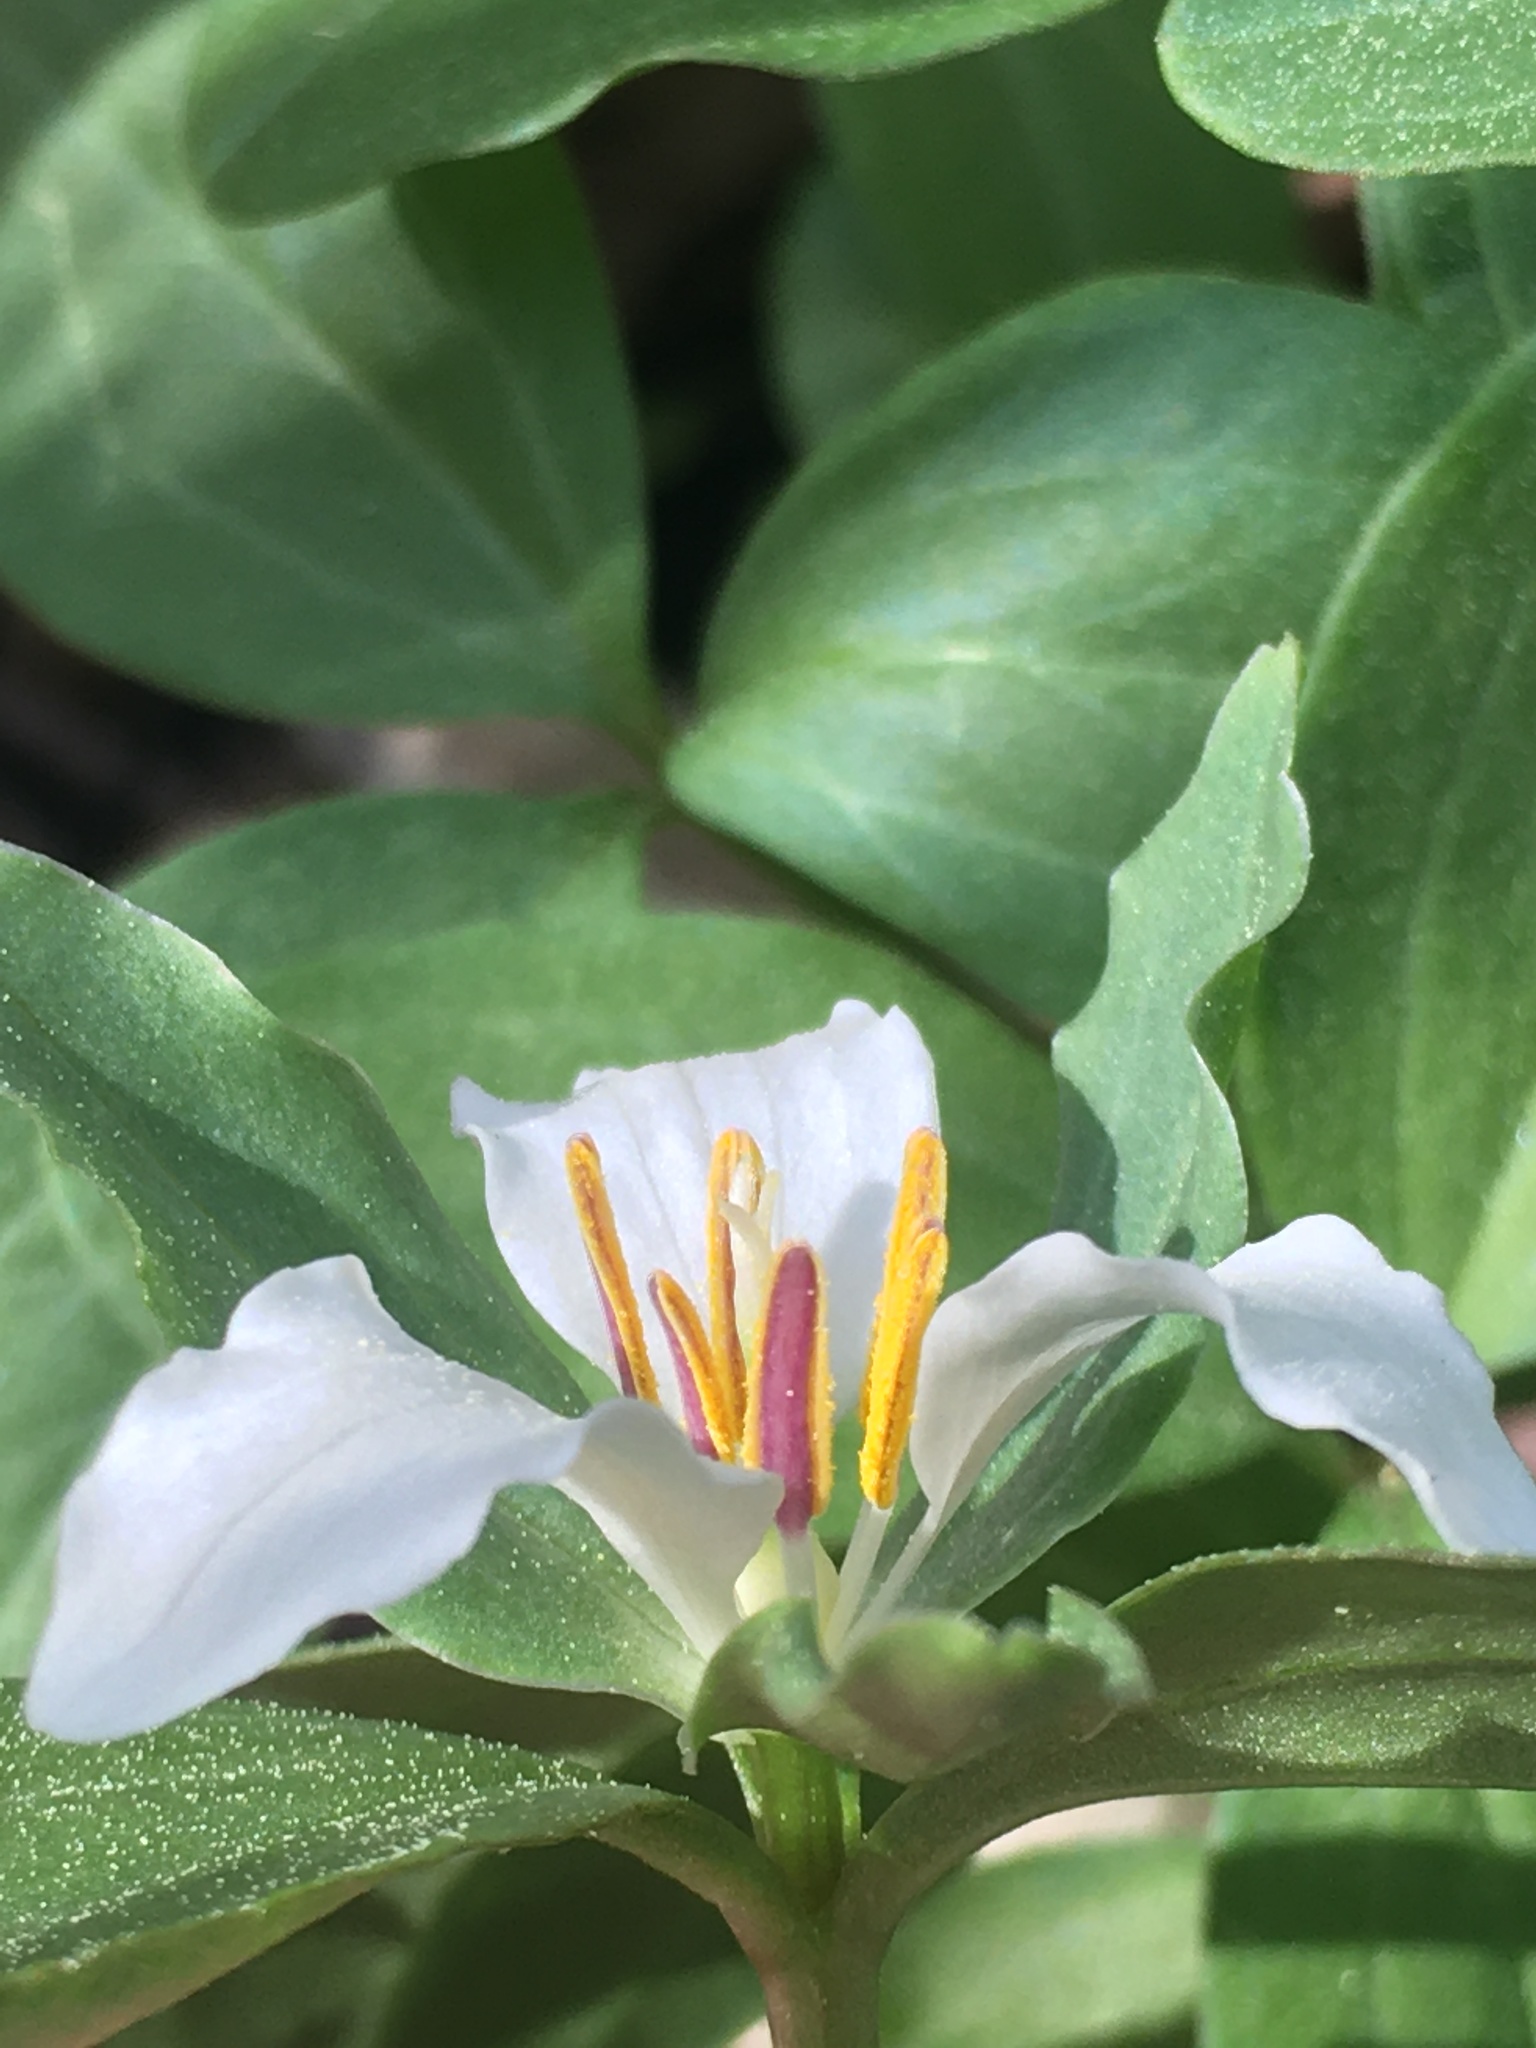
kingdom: Plantae
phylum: Tracheophyta
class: Liliopsida
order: Liliales
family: Melanthiaceae
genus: Trillium
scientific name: Trillium pusillum
